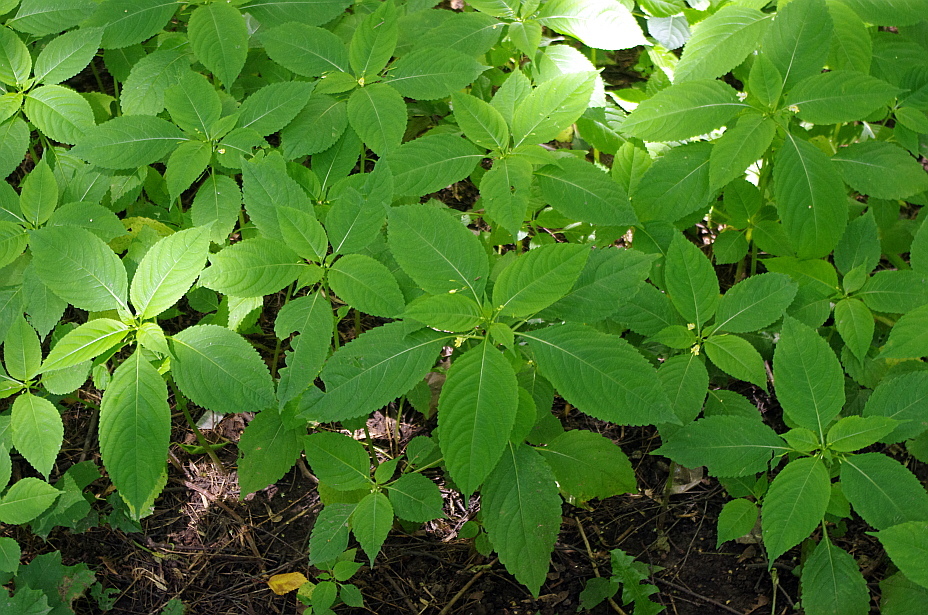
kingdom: Plantae
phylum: Tracheophyta
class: Magnoliopsida
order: Ericales
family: Balsaminaceae
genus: Impatiens
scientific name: Impatiens parviflora
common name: Small balsam
